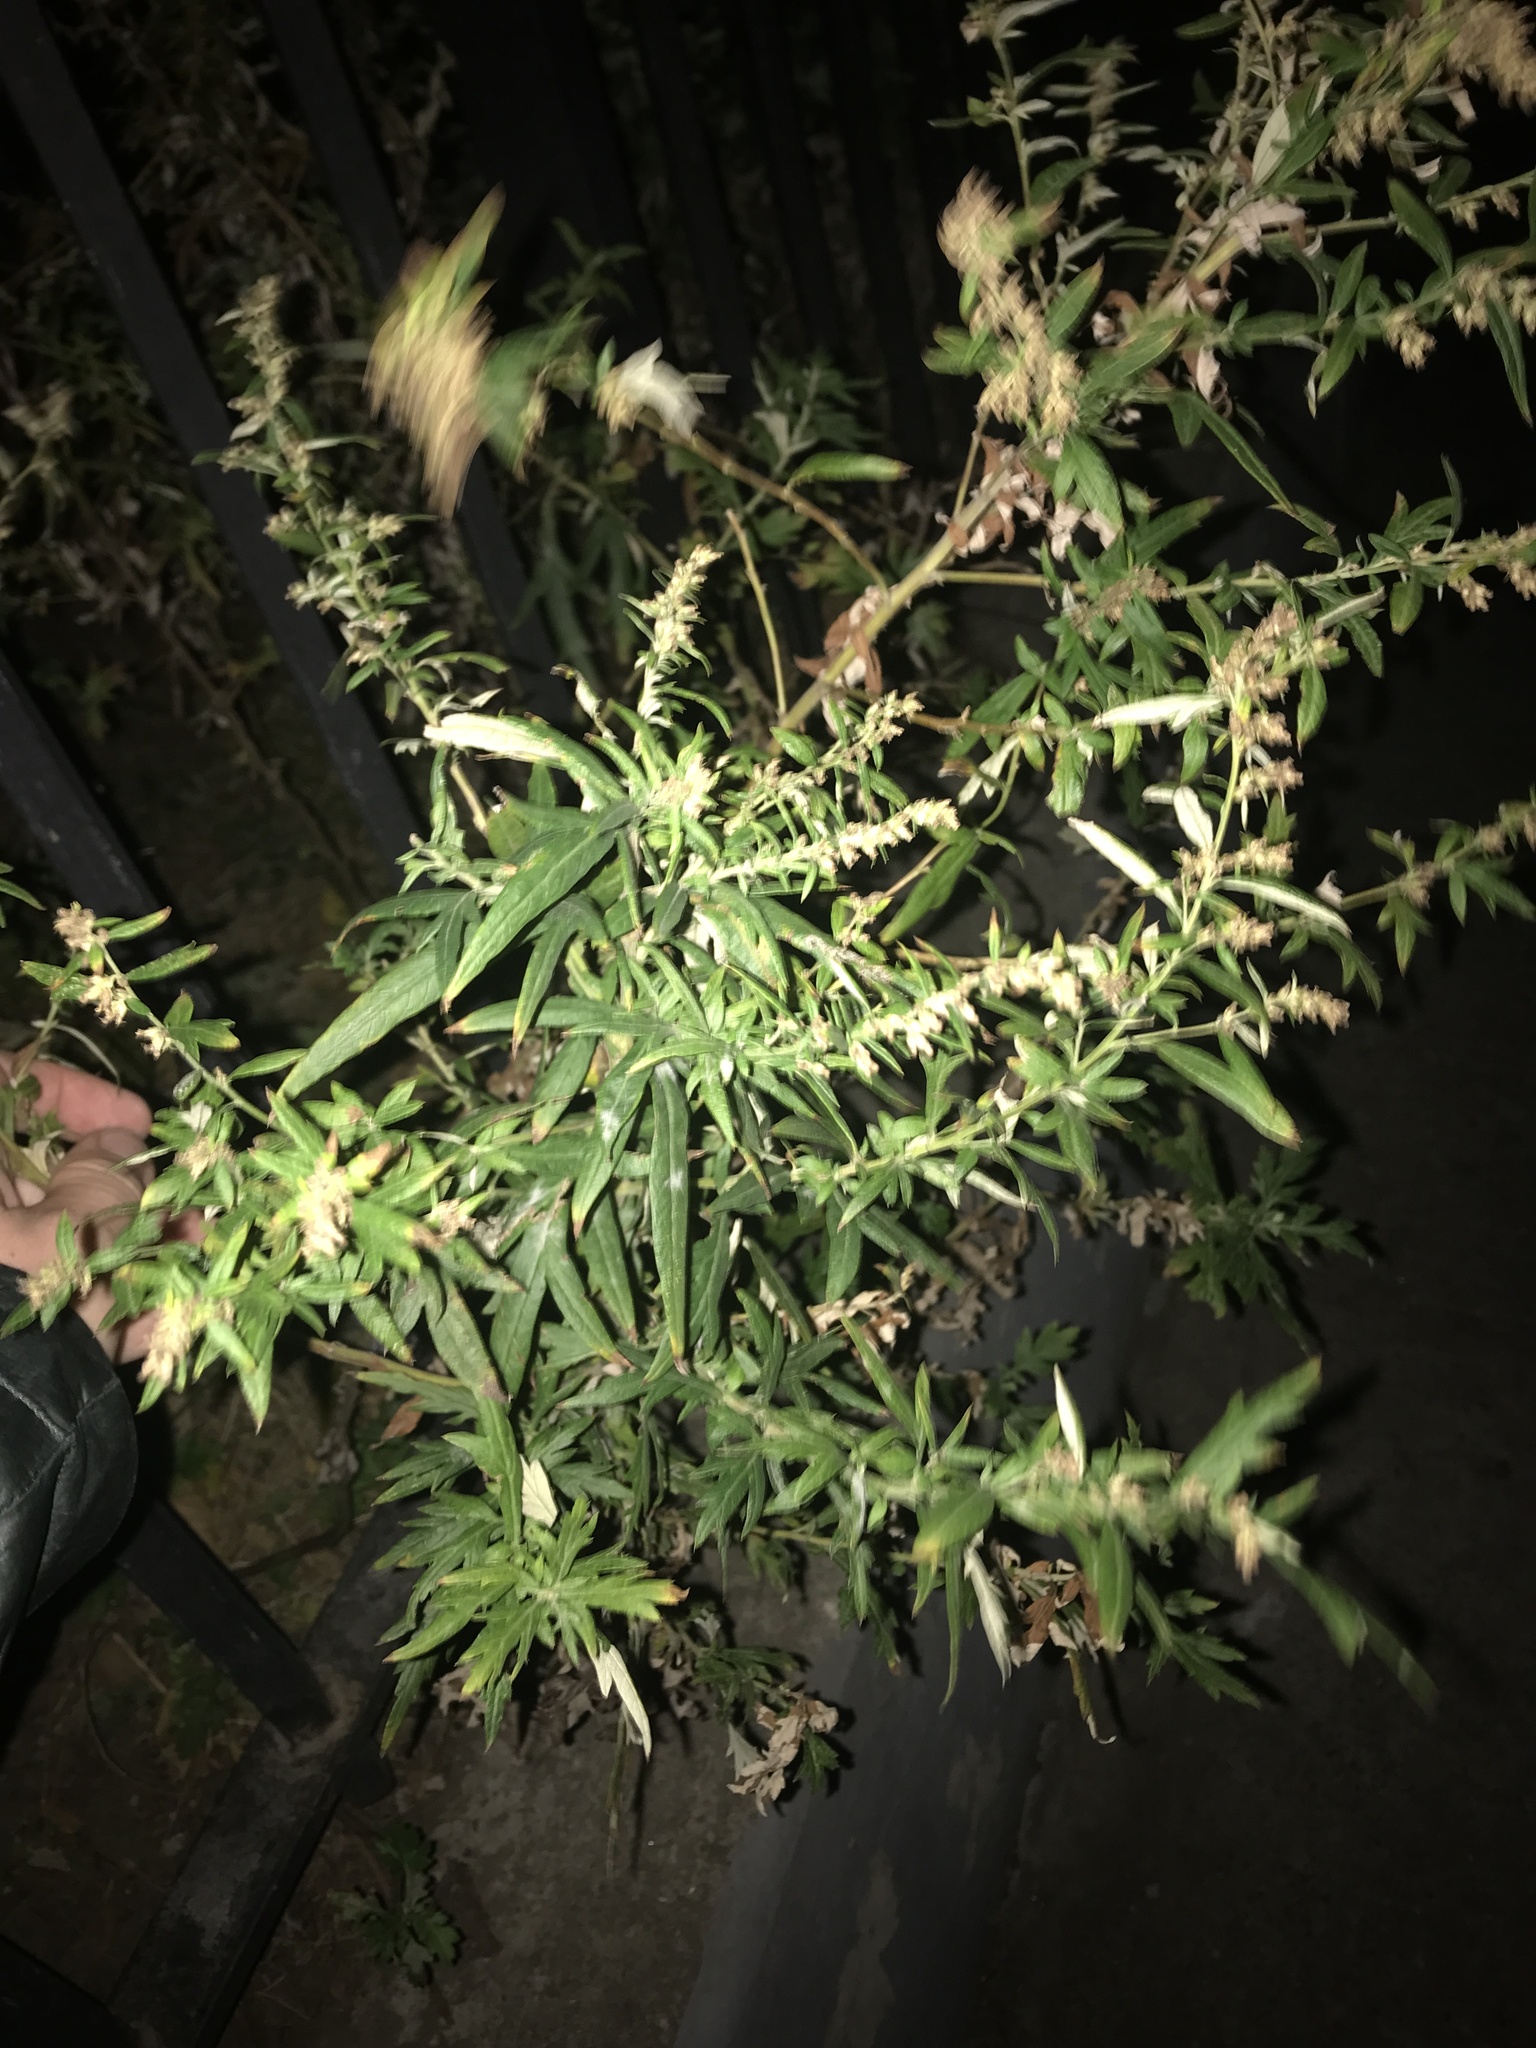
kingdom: Plantae
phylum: Tracheophyta
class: Magnoliopsida
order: Asterales
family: Asteraceae
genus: Artemisia
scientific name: Artemisia vulgaris
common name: Mugwort
